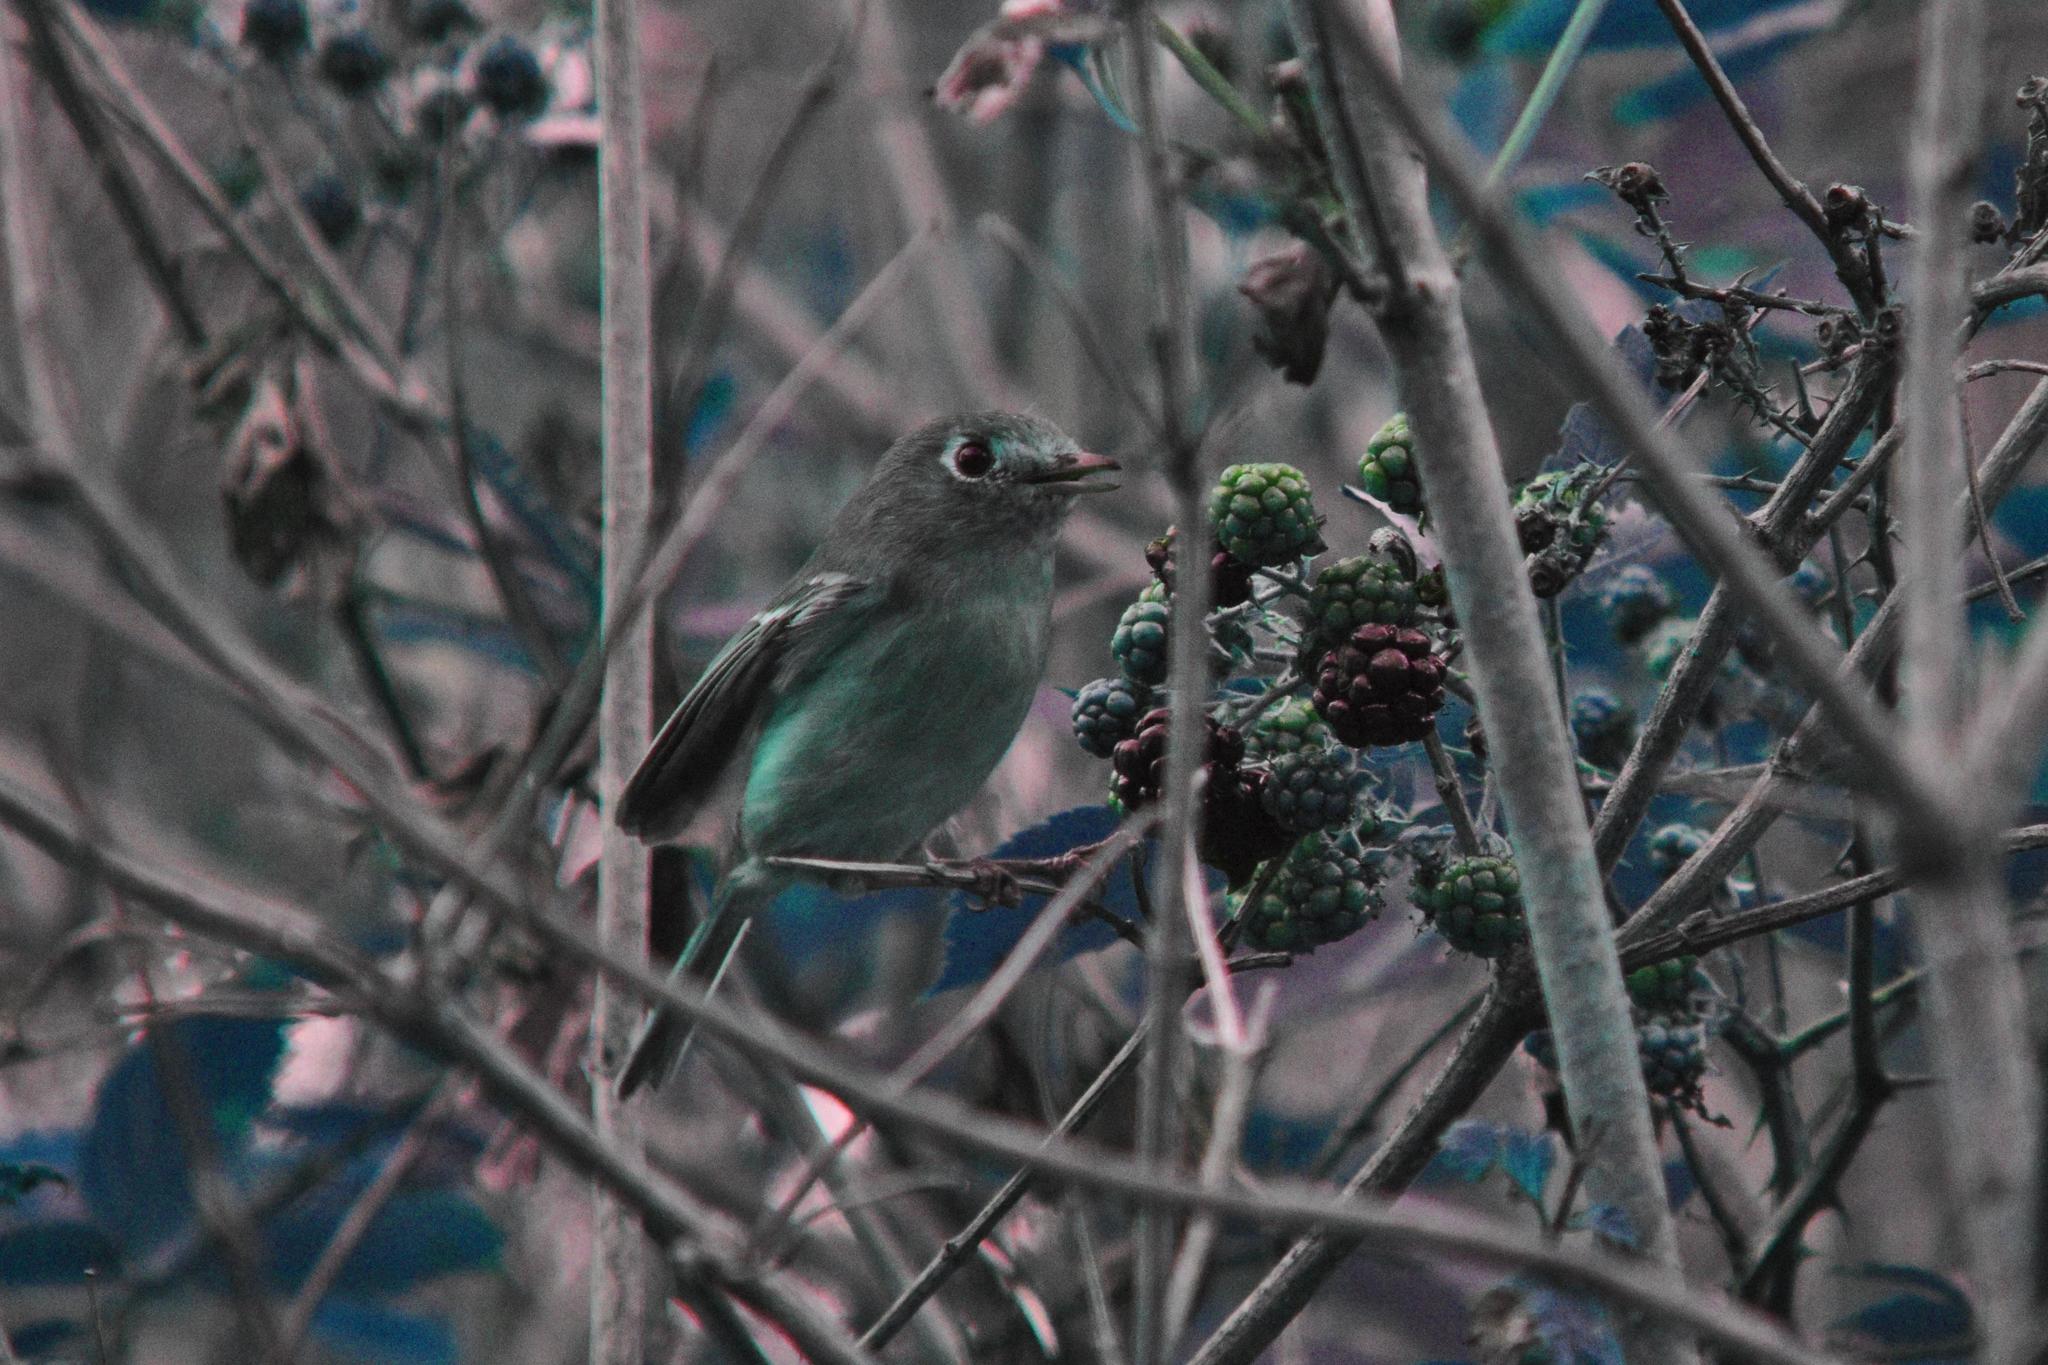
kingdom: Animalia
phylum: Chordata
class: Aves
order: Passeriformes
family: Vireonidae
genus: Vireo
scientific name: Vireo huttoni
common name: Hutton's vireo
